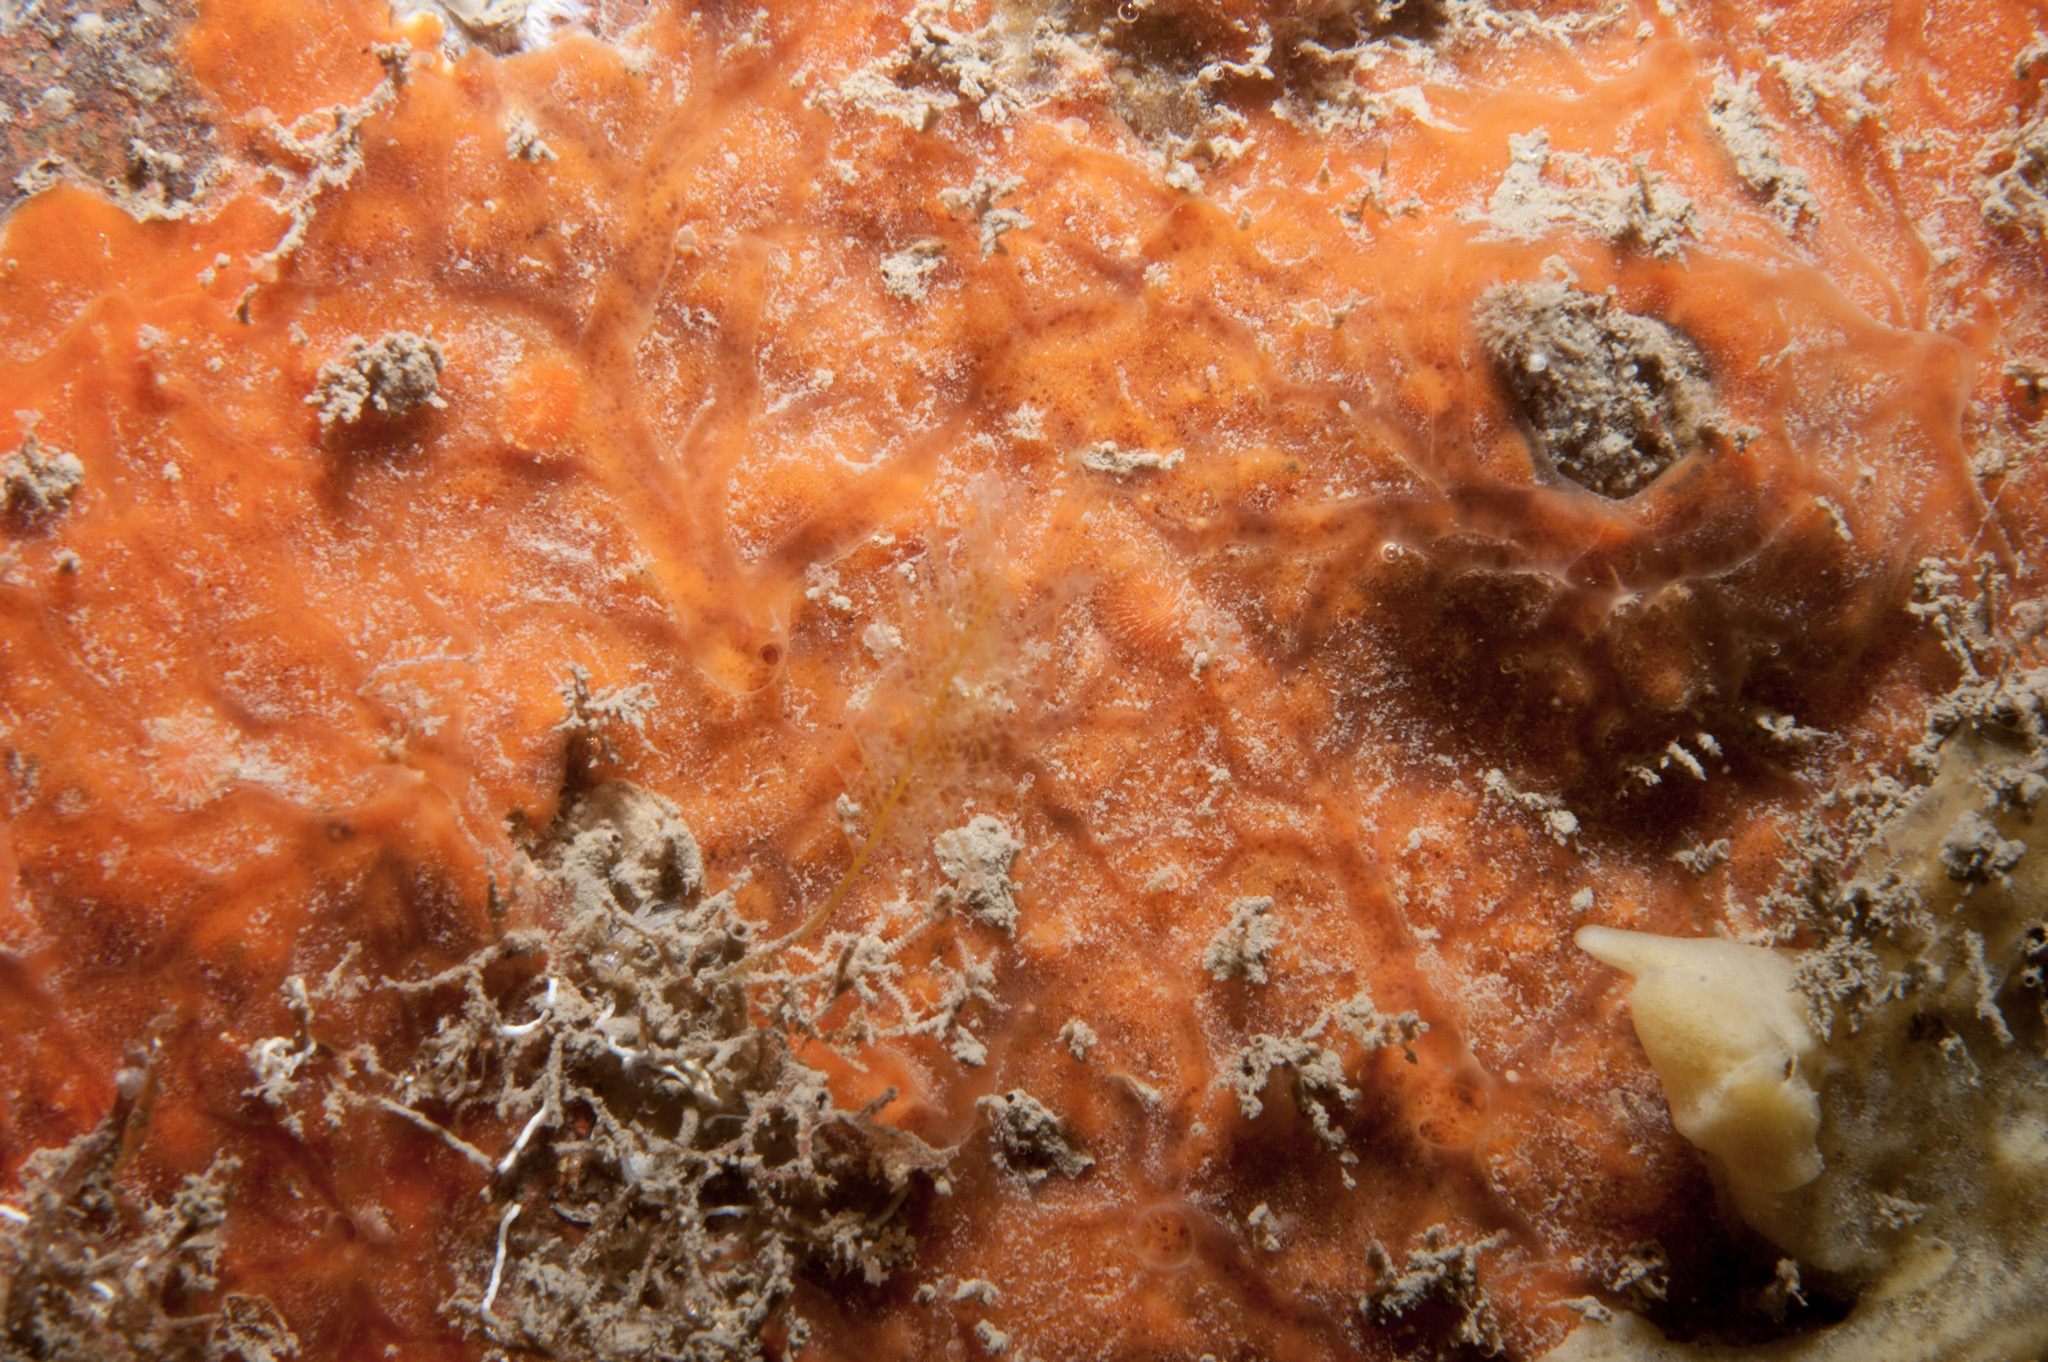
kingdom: Animalia
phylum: Porifera
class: Demospongiae
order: Poecilosclerida
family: Microcionidae
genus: Clathria
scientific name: Clathria atrasanguinea
